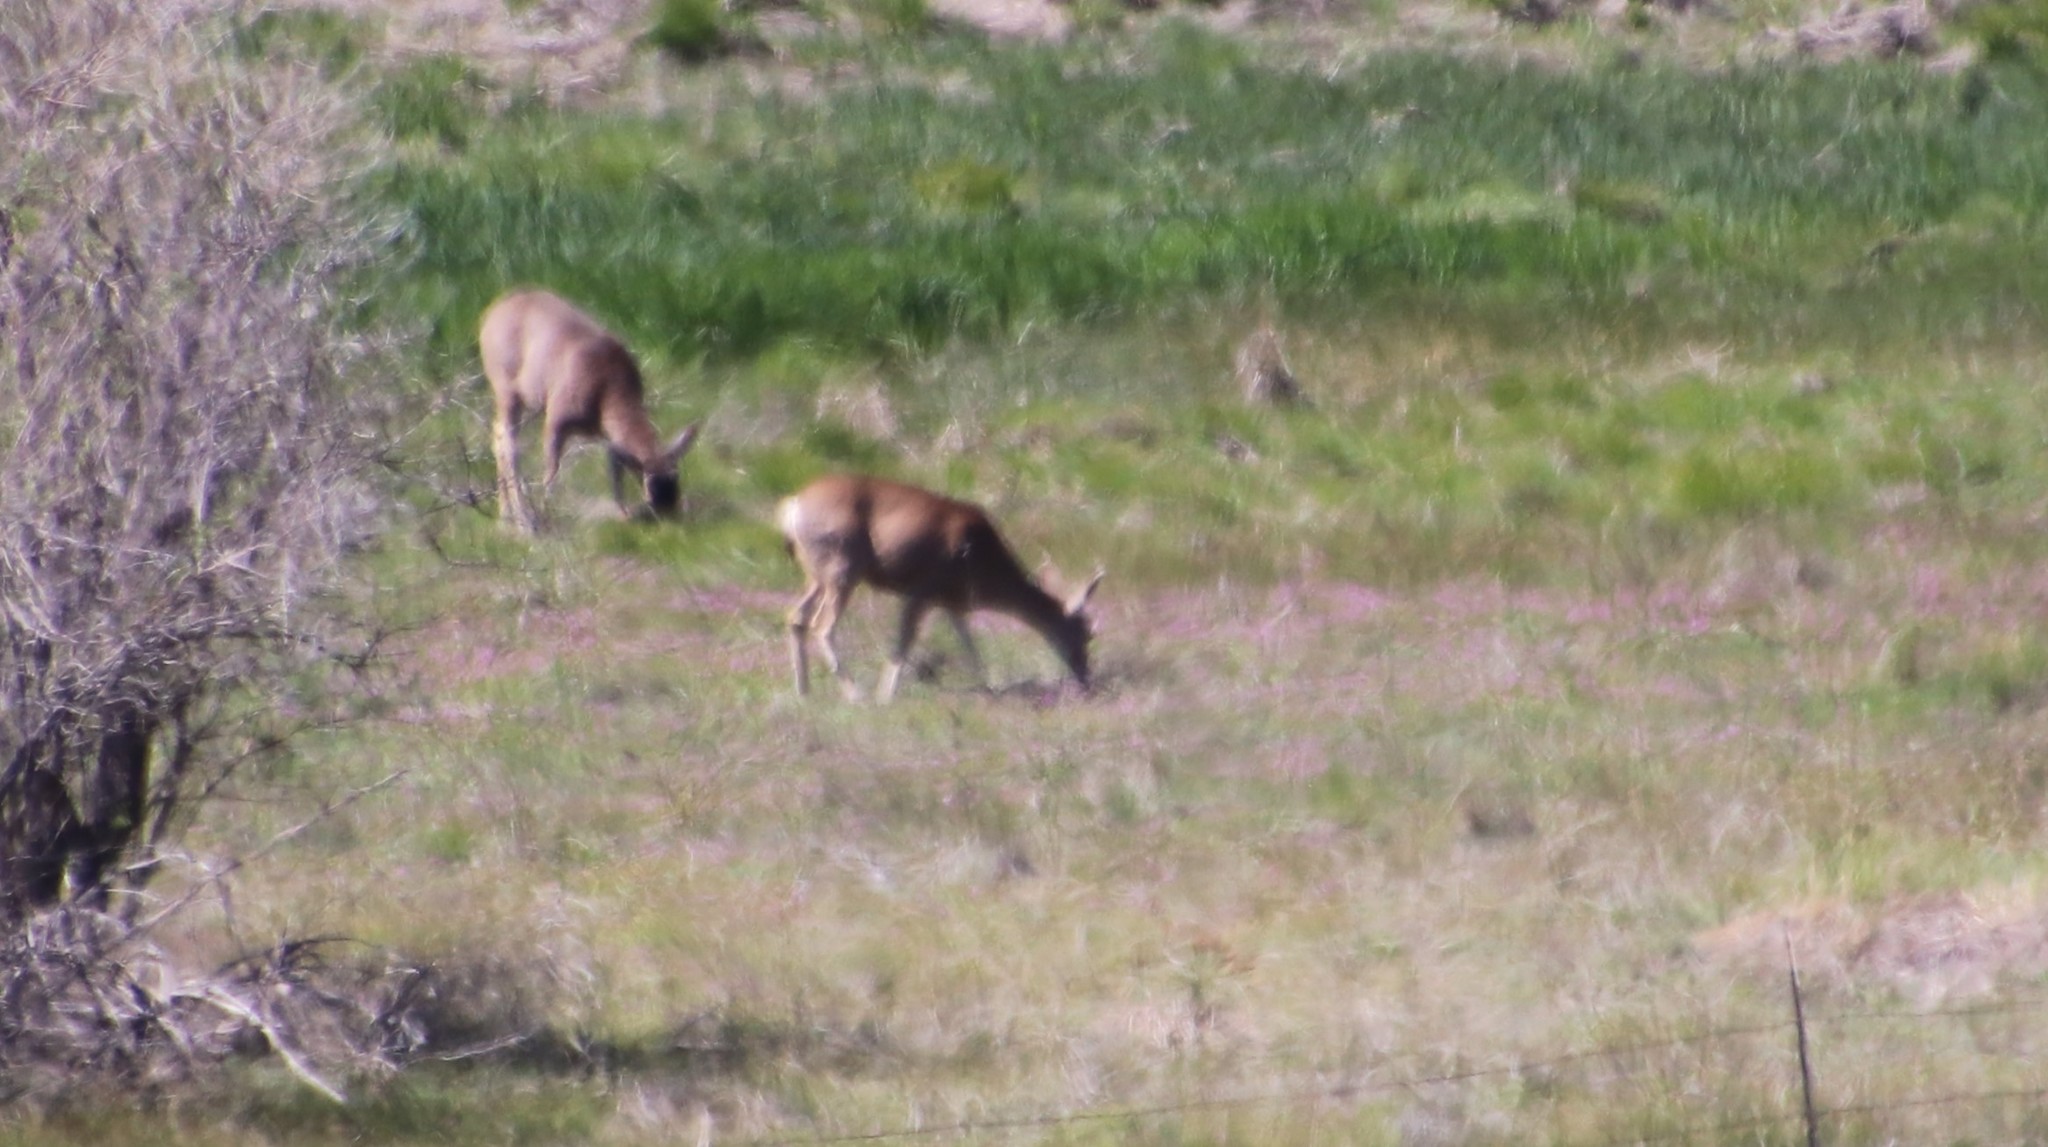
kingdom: Animalia
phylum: Chordata
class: Mammalia
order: Artiodactyla
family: Cervidae
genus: Odocoileus
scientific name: Odocoileus hemionus
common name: Mule deer
